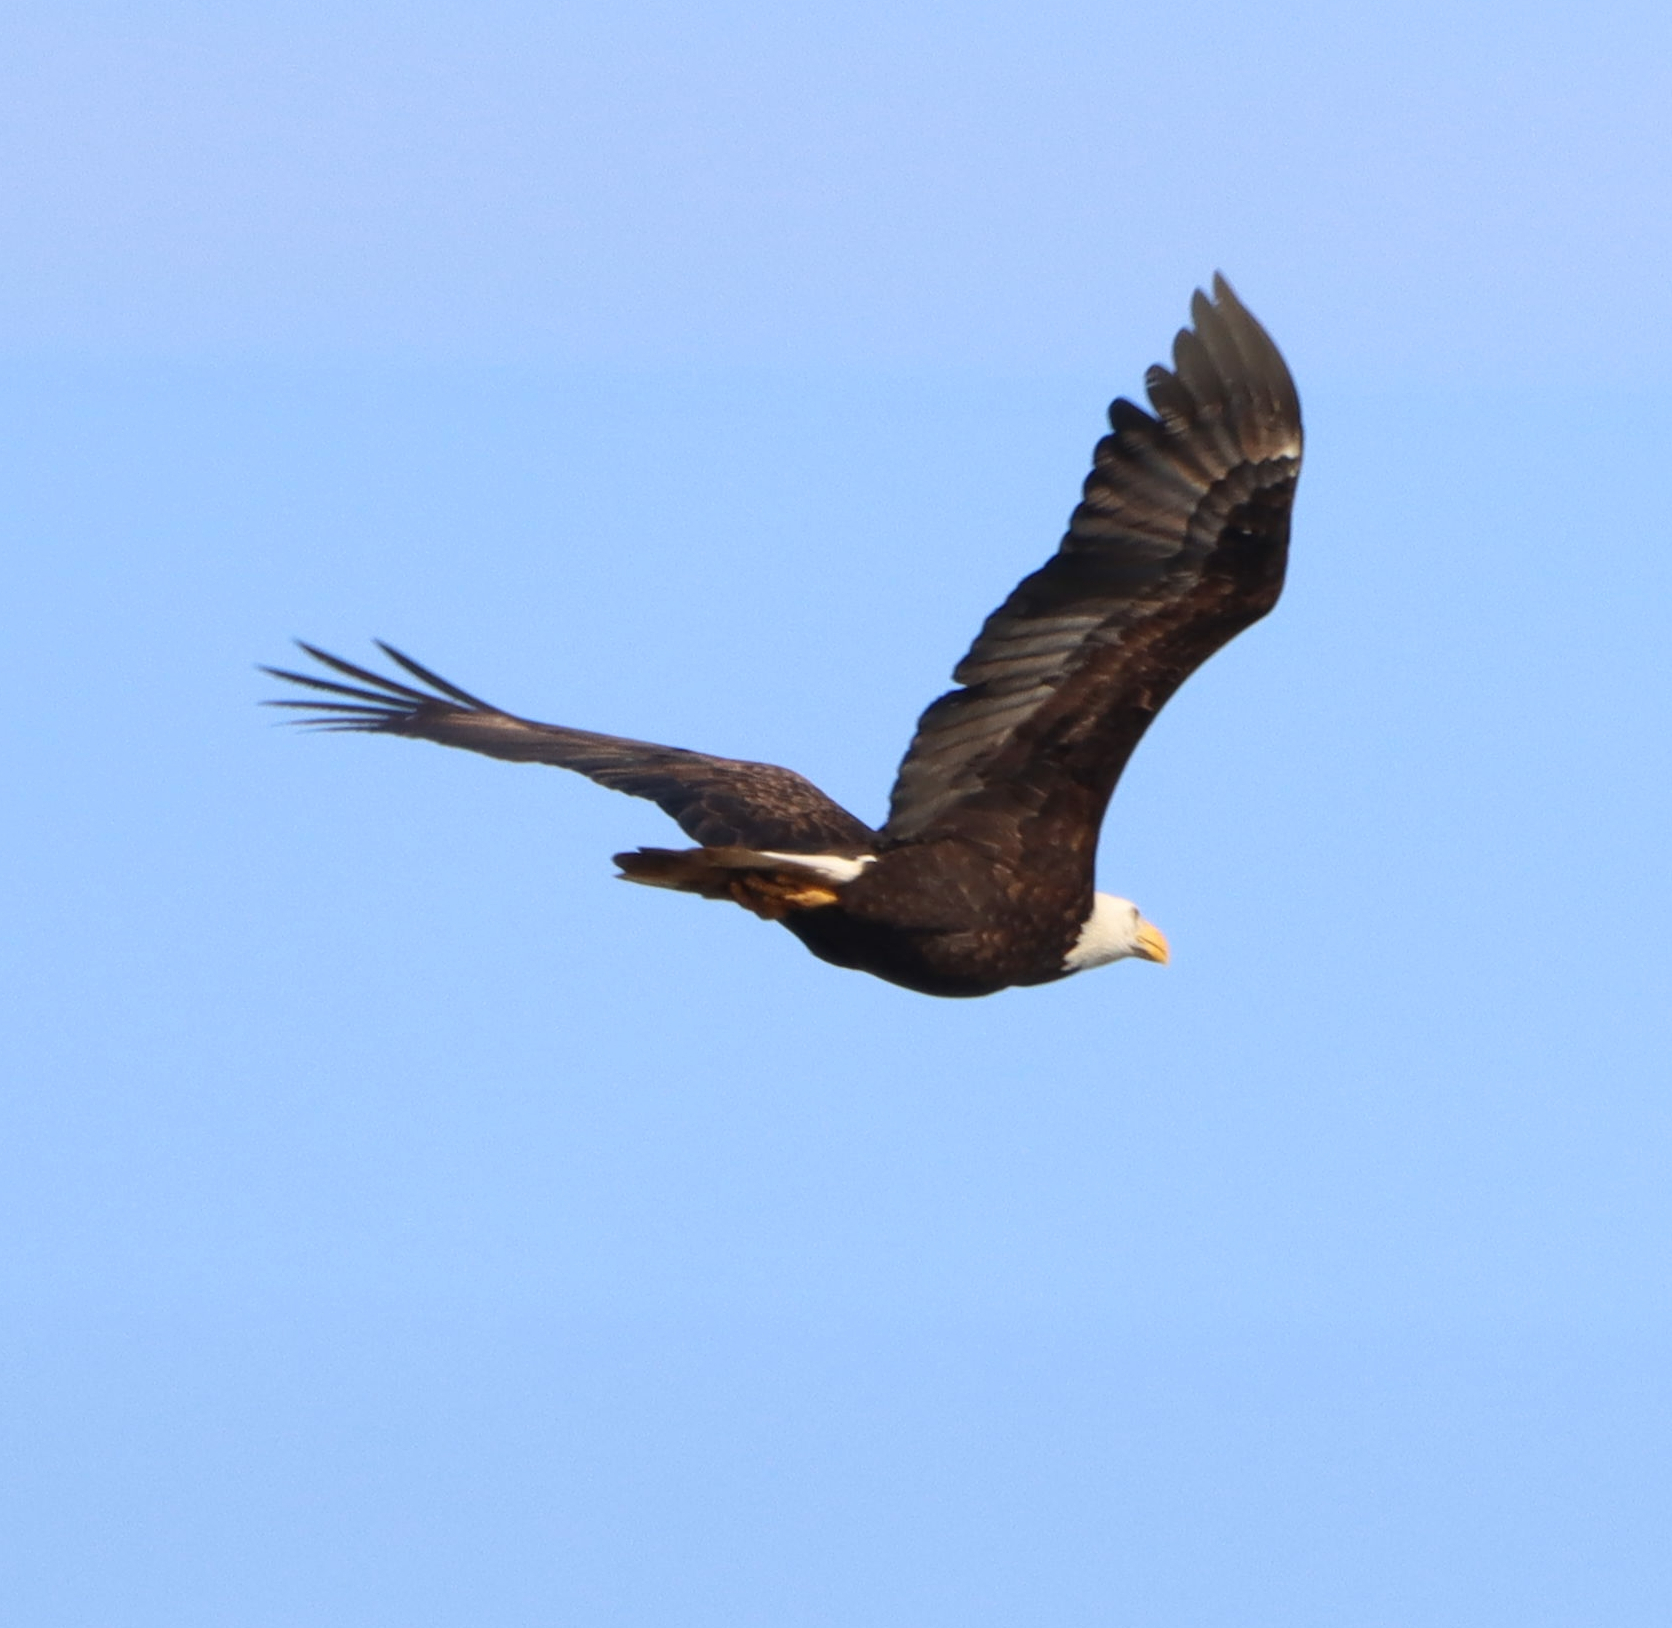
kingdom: Animalia
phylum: Chordata
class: Aves
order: Accipitriformes
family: Accipitridae
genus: Haliaeetus
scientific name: Haliaeetus leucocephalus
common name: Bald eagle
